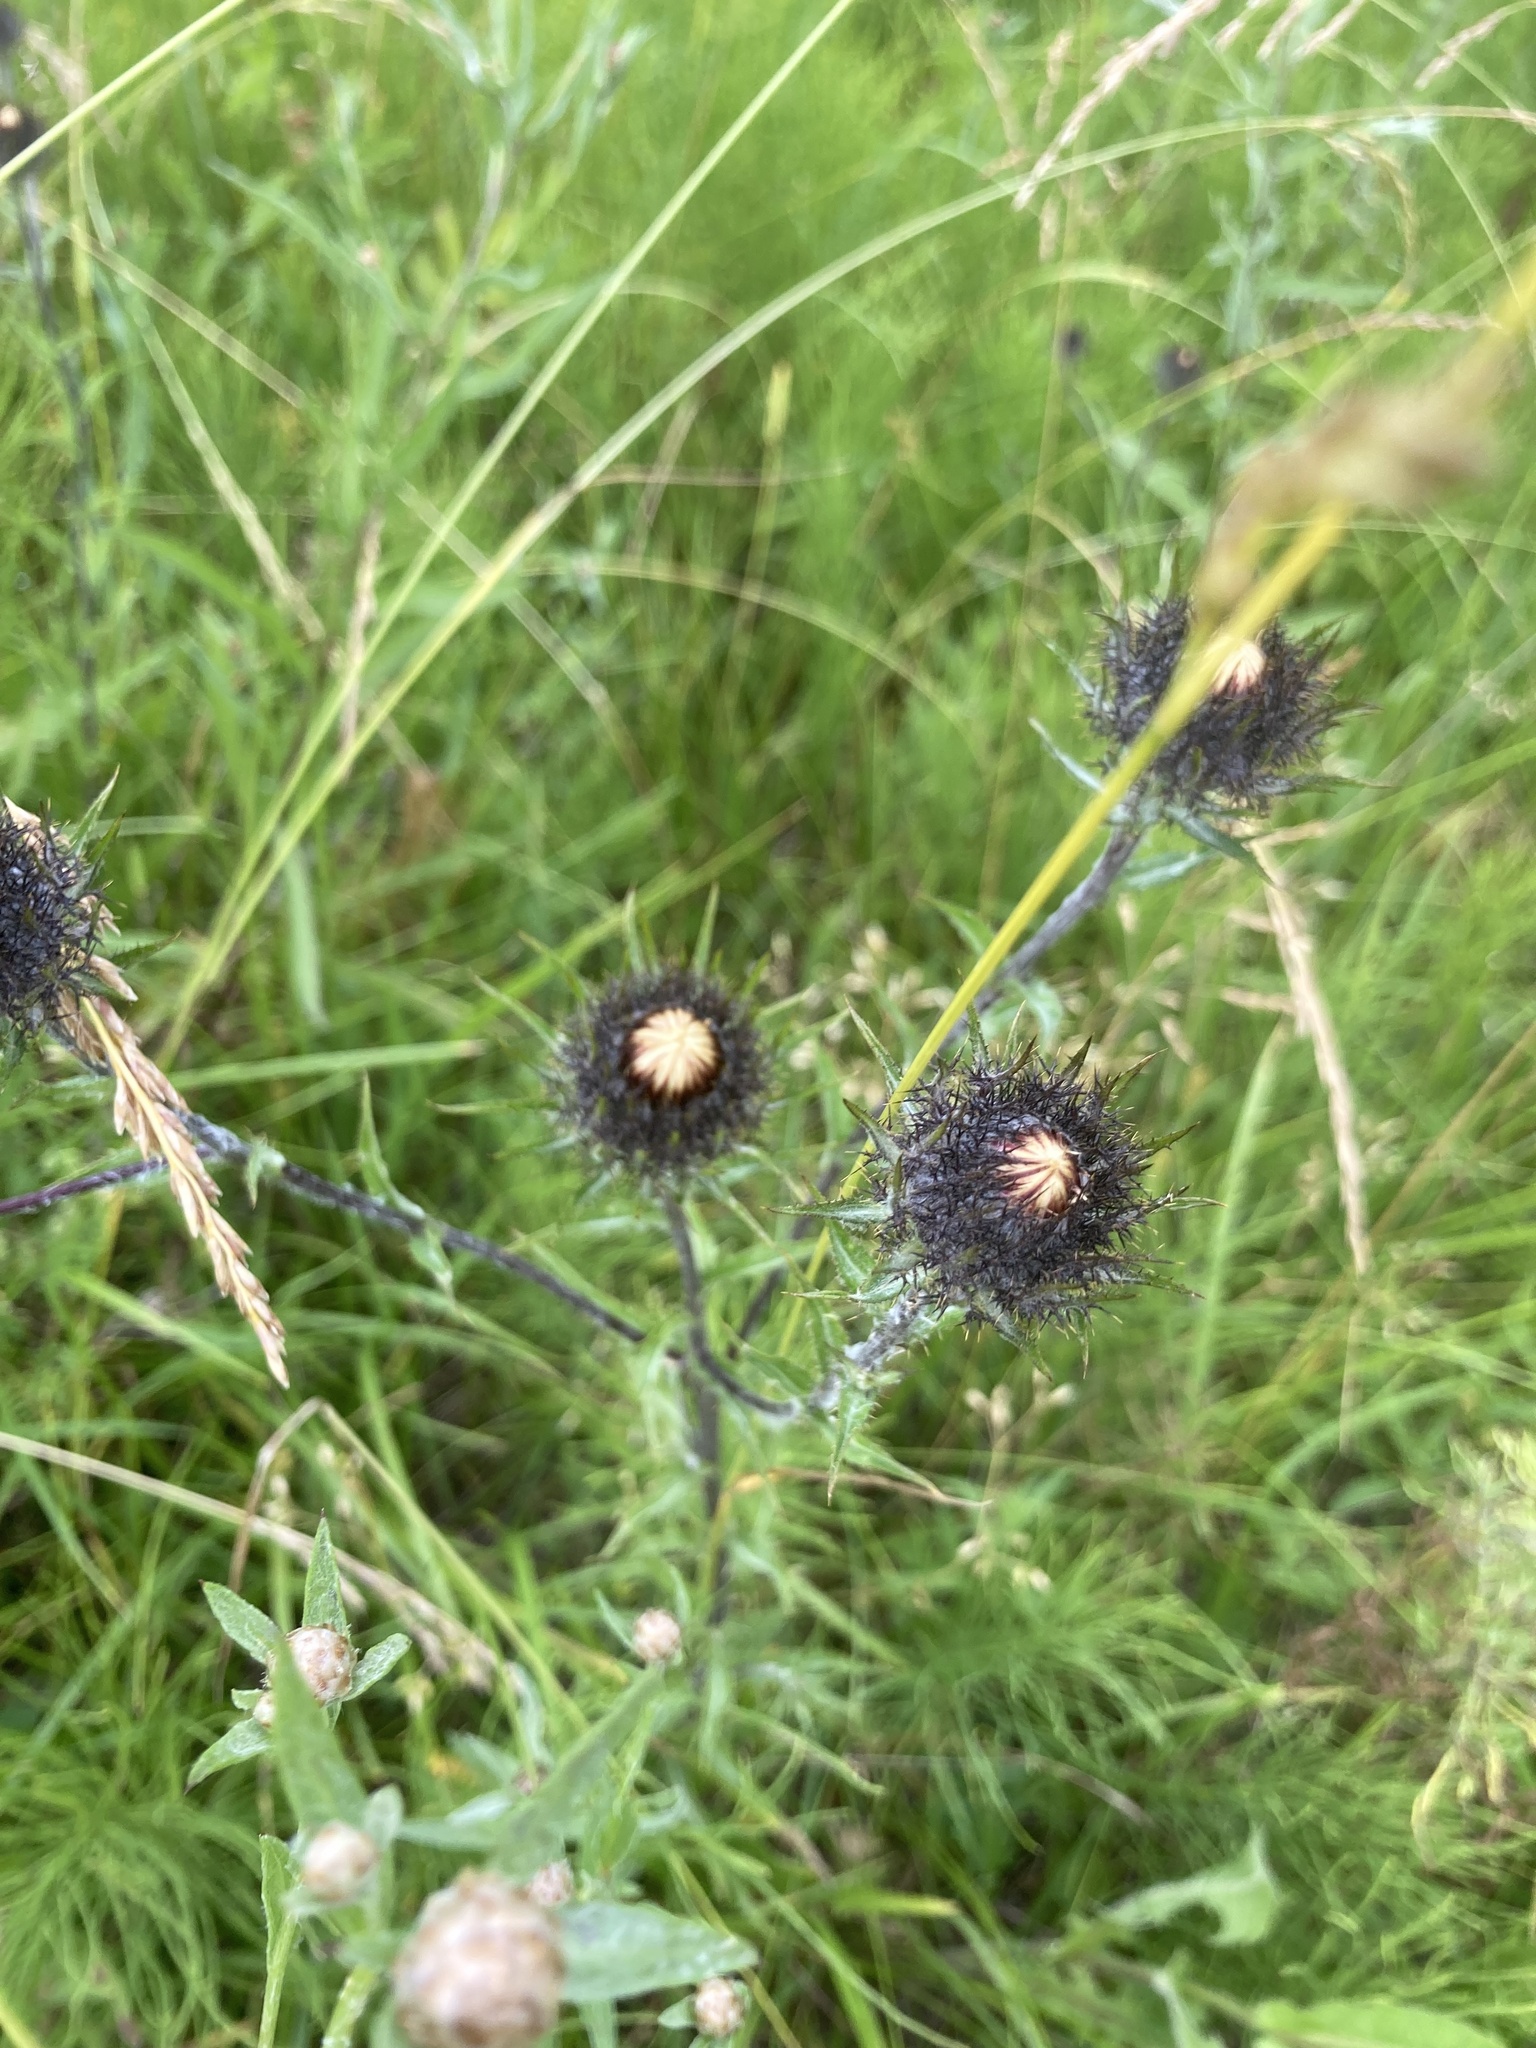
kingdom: Plantae
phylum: Tracheophyta
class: Magnoliopsida
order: Asterales
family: Asteraceae
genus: Carlina
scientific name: Carlina biebersteinii
